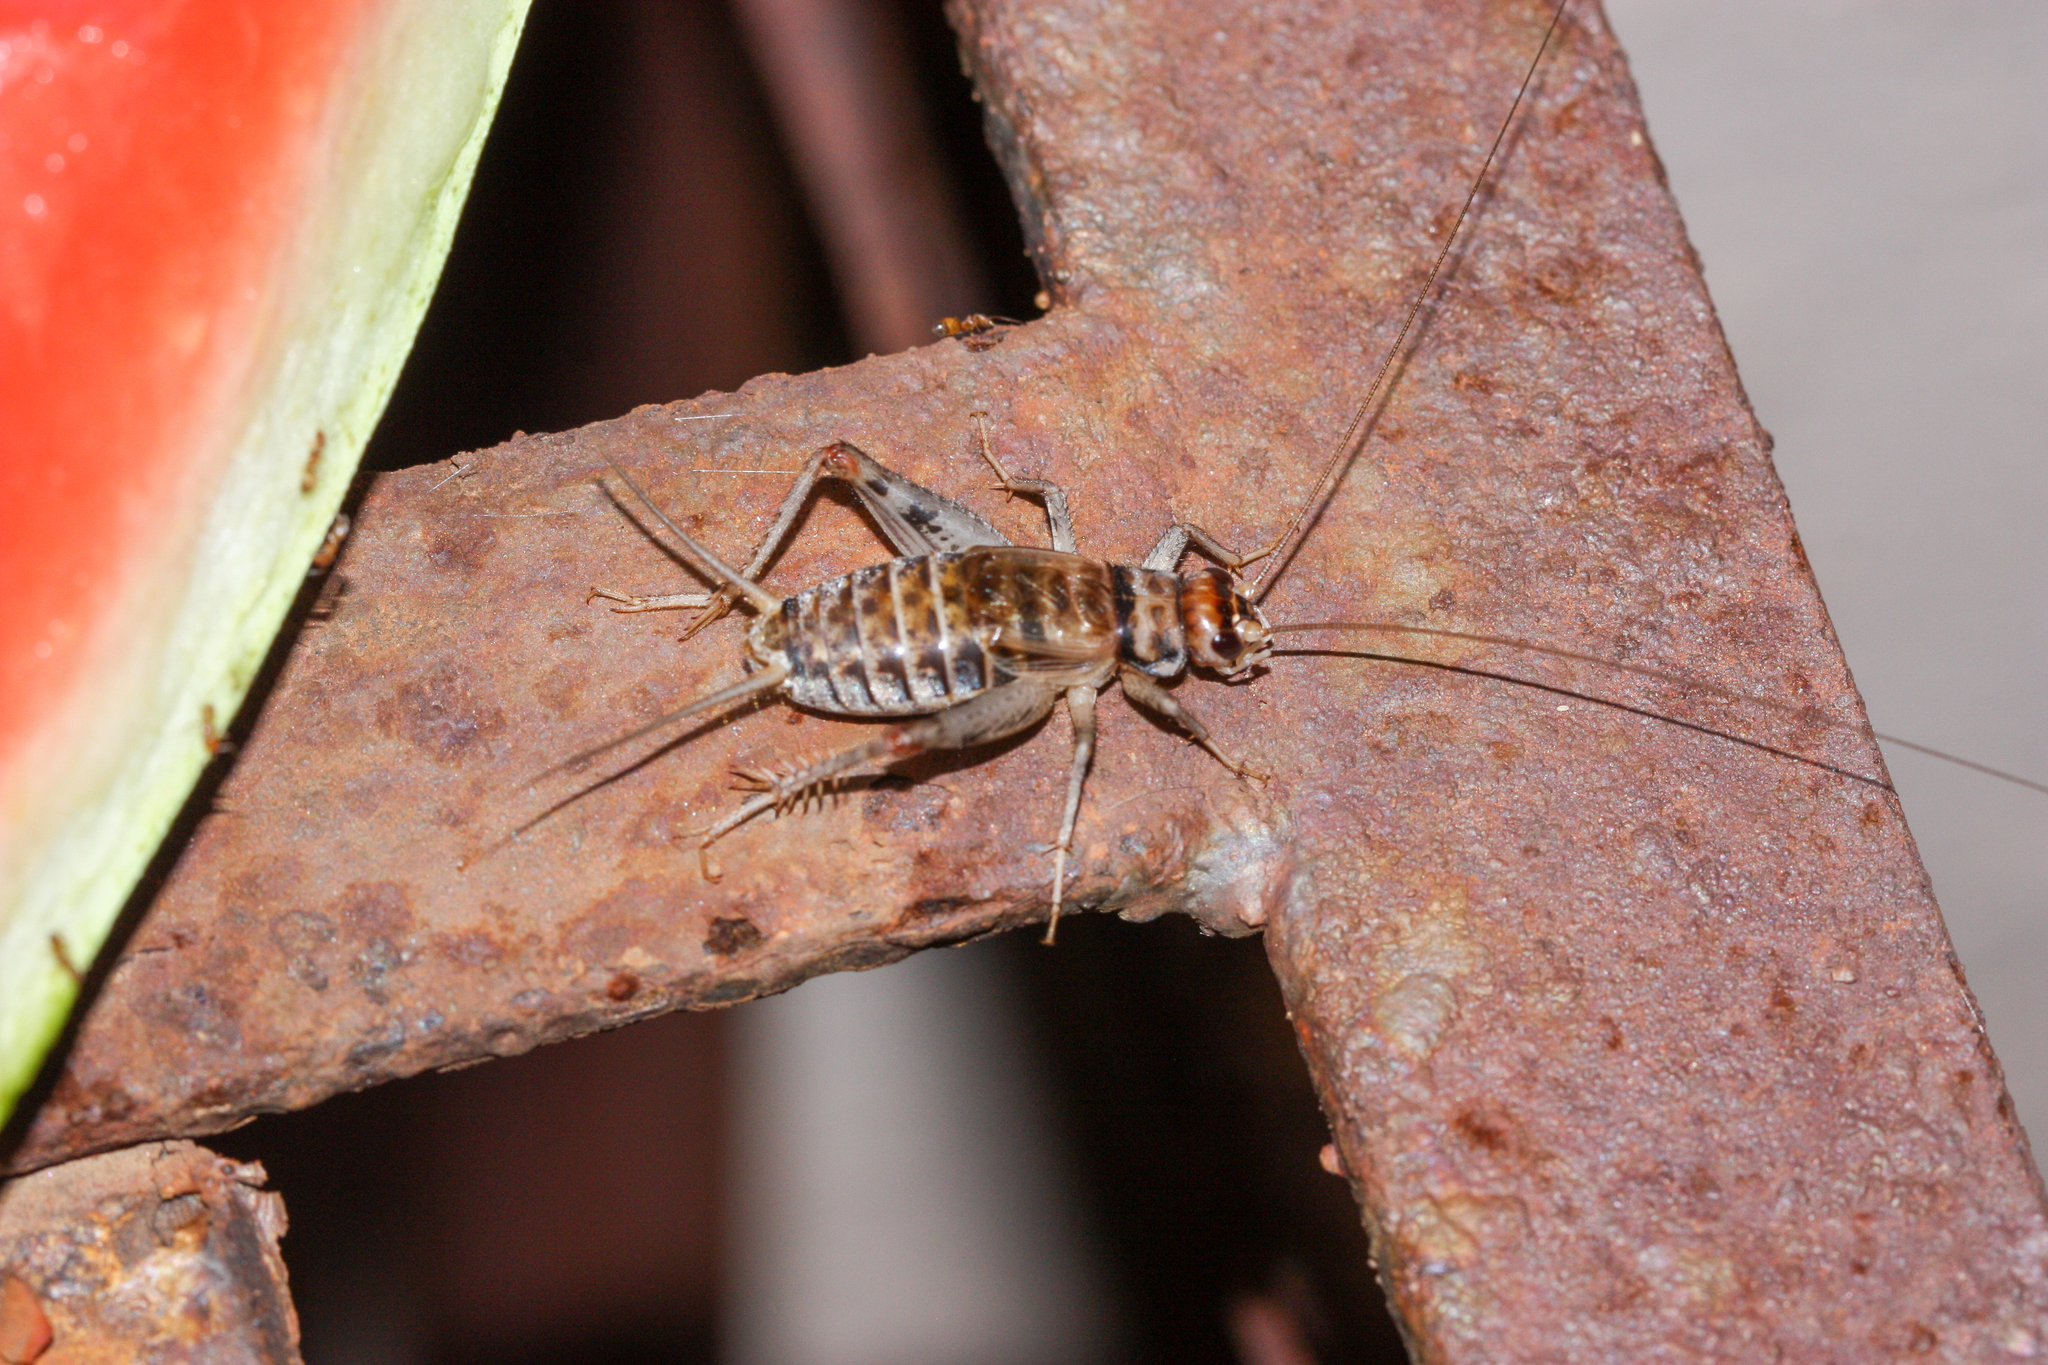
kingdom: Animalia
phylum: Arthropoda
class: Insecta
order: Orthoptera
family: Gryllidae
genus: Gryllodes
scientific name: Gryllodes sigillatus
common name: Tropical house cricket
